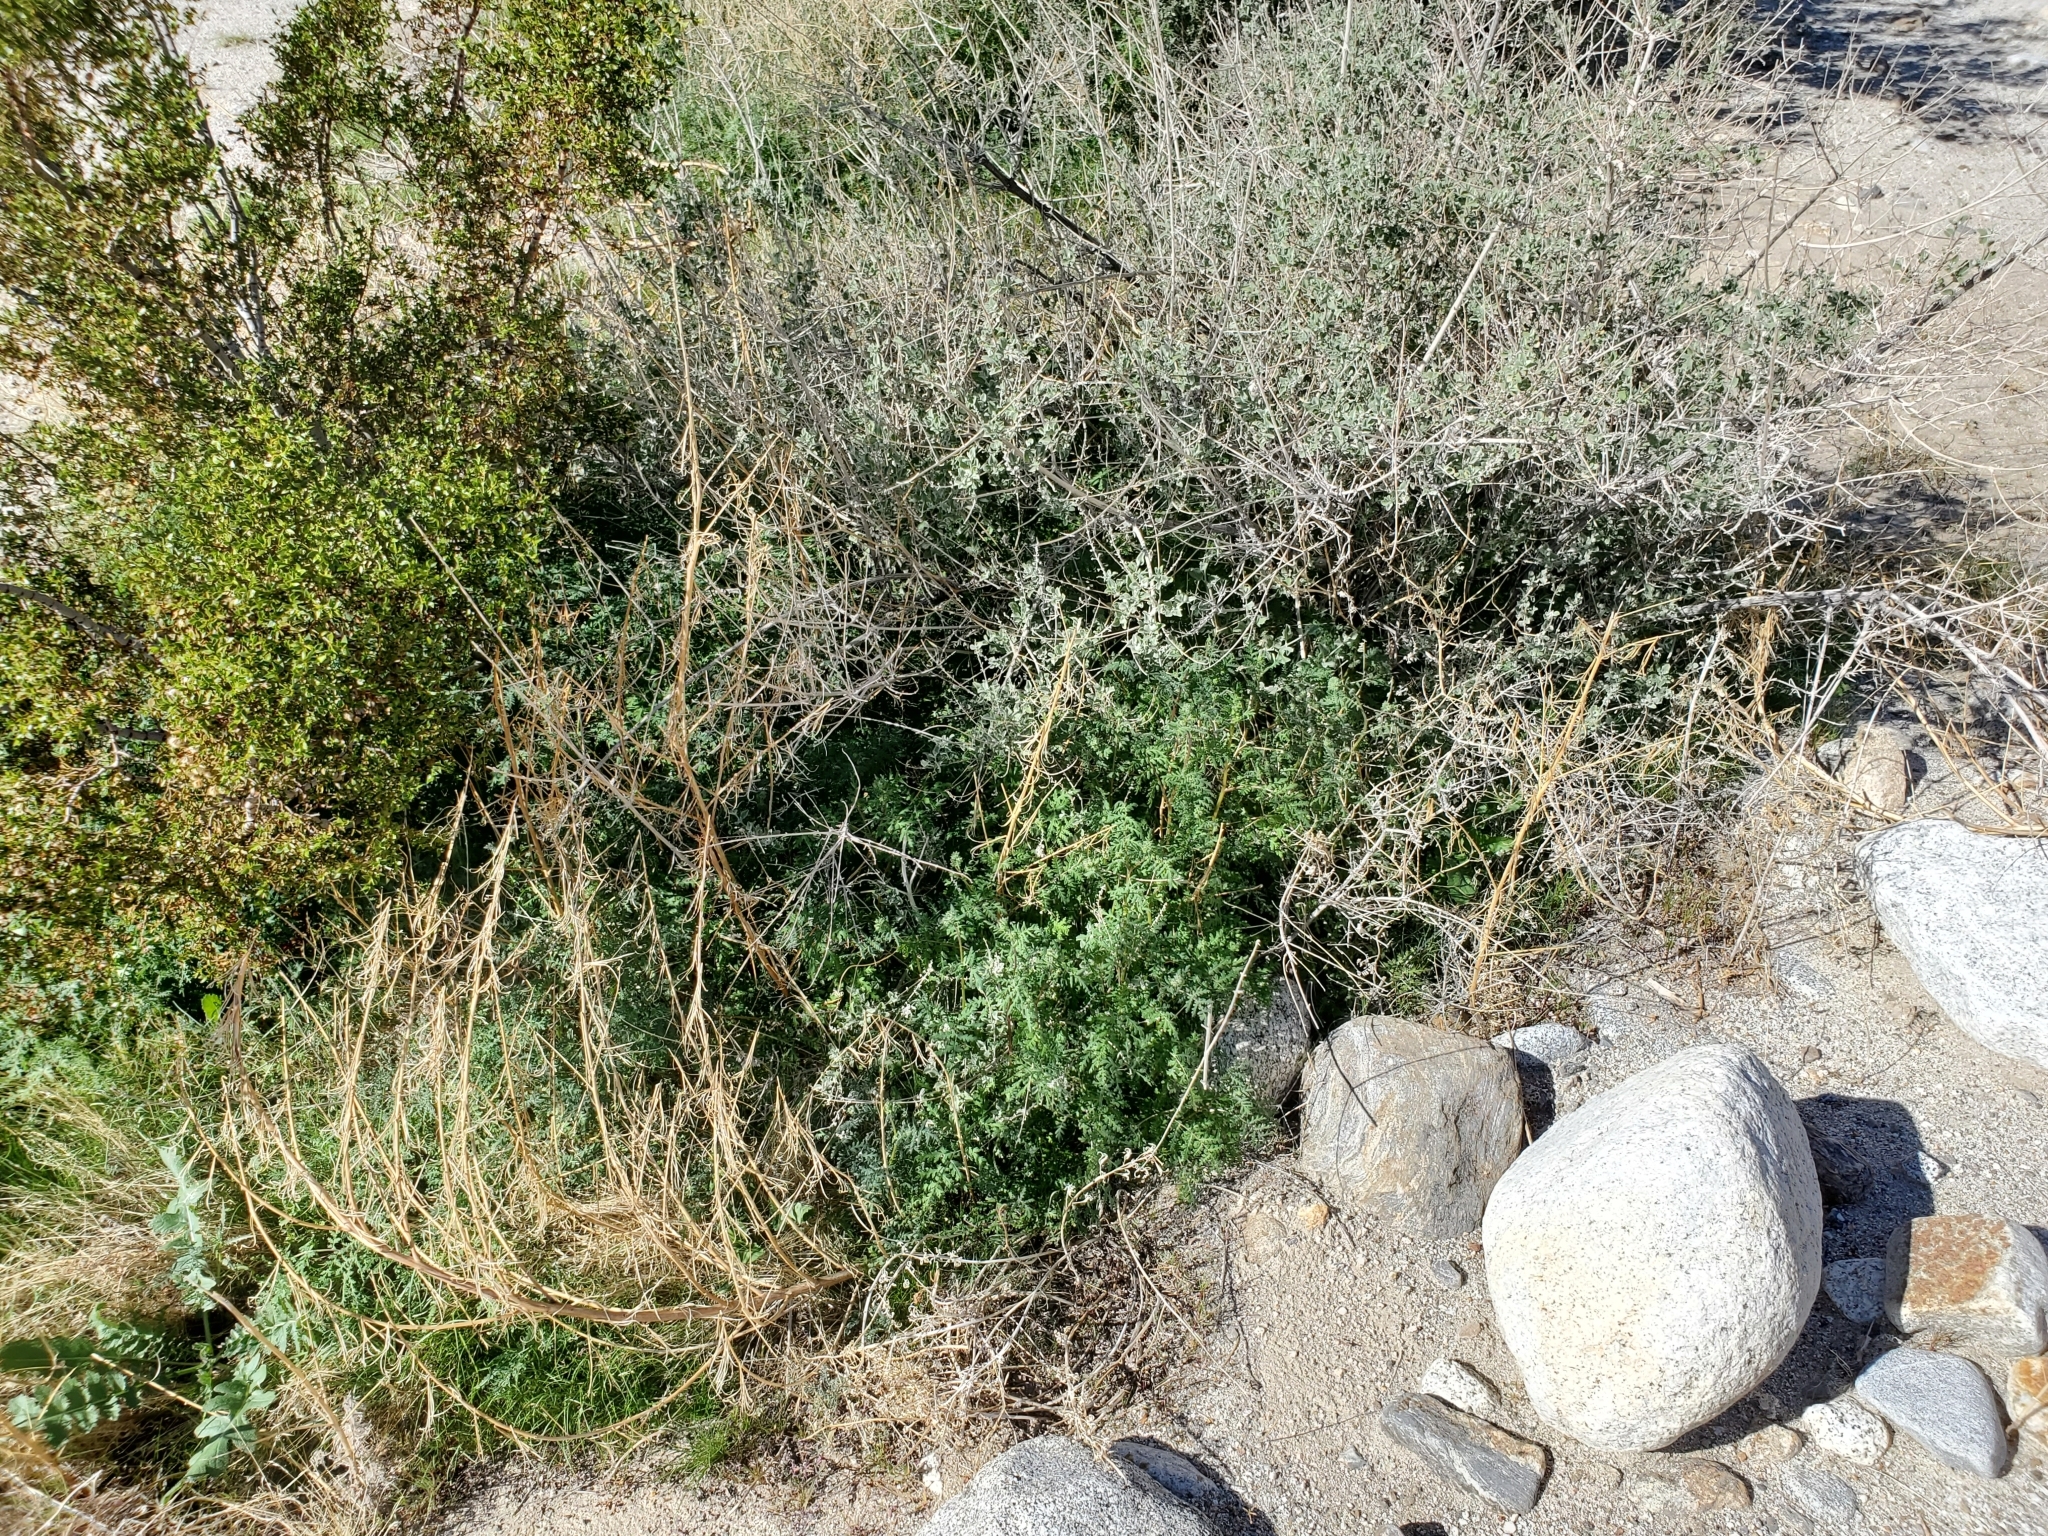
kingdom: Plantae
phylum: Tracheophyta
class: Magnoliopsida
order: Boraginales
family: Hydrophyllaceae
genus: Phacelia
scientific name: Phacelia distans
